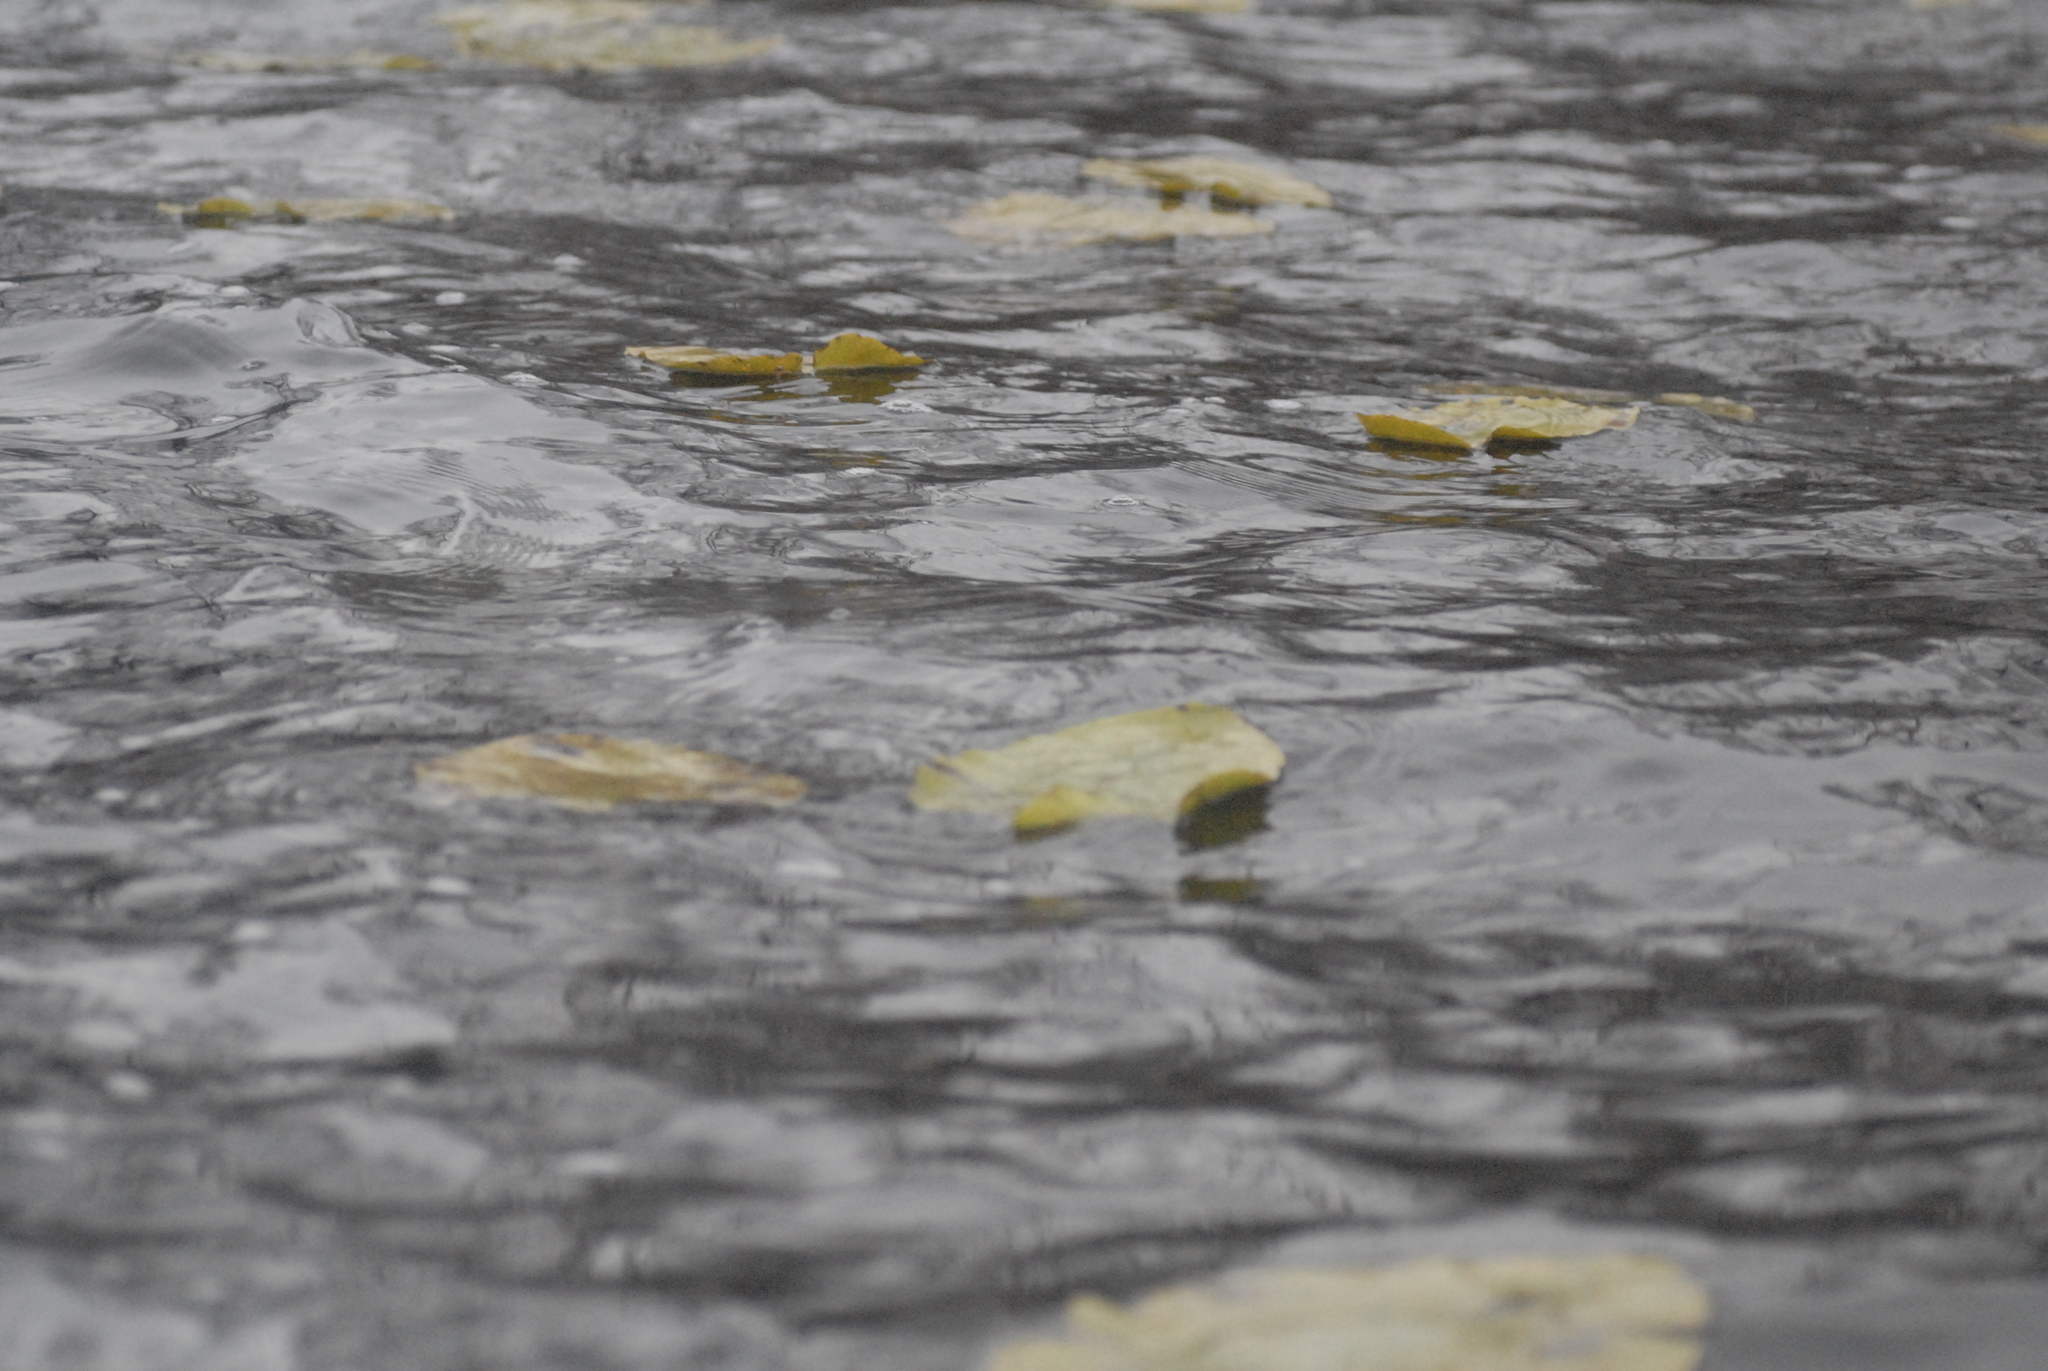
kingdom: Plantae
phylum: Tracheophyta
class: Magnoliopsida
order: Nymphaeales
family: Nymphaeaceae
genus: Nuphar
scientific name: Nuphar lutea
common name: Yellow water-lily
